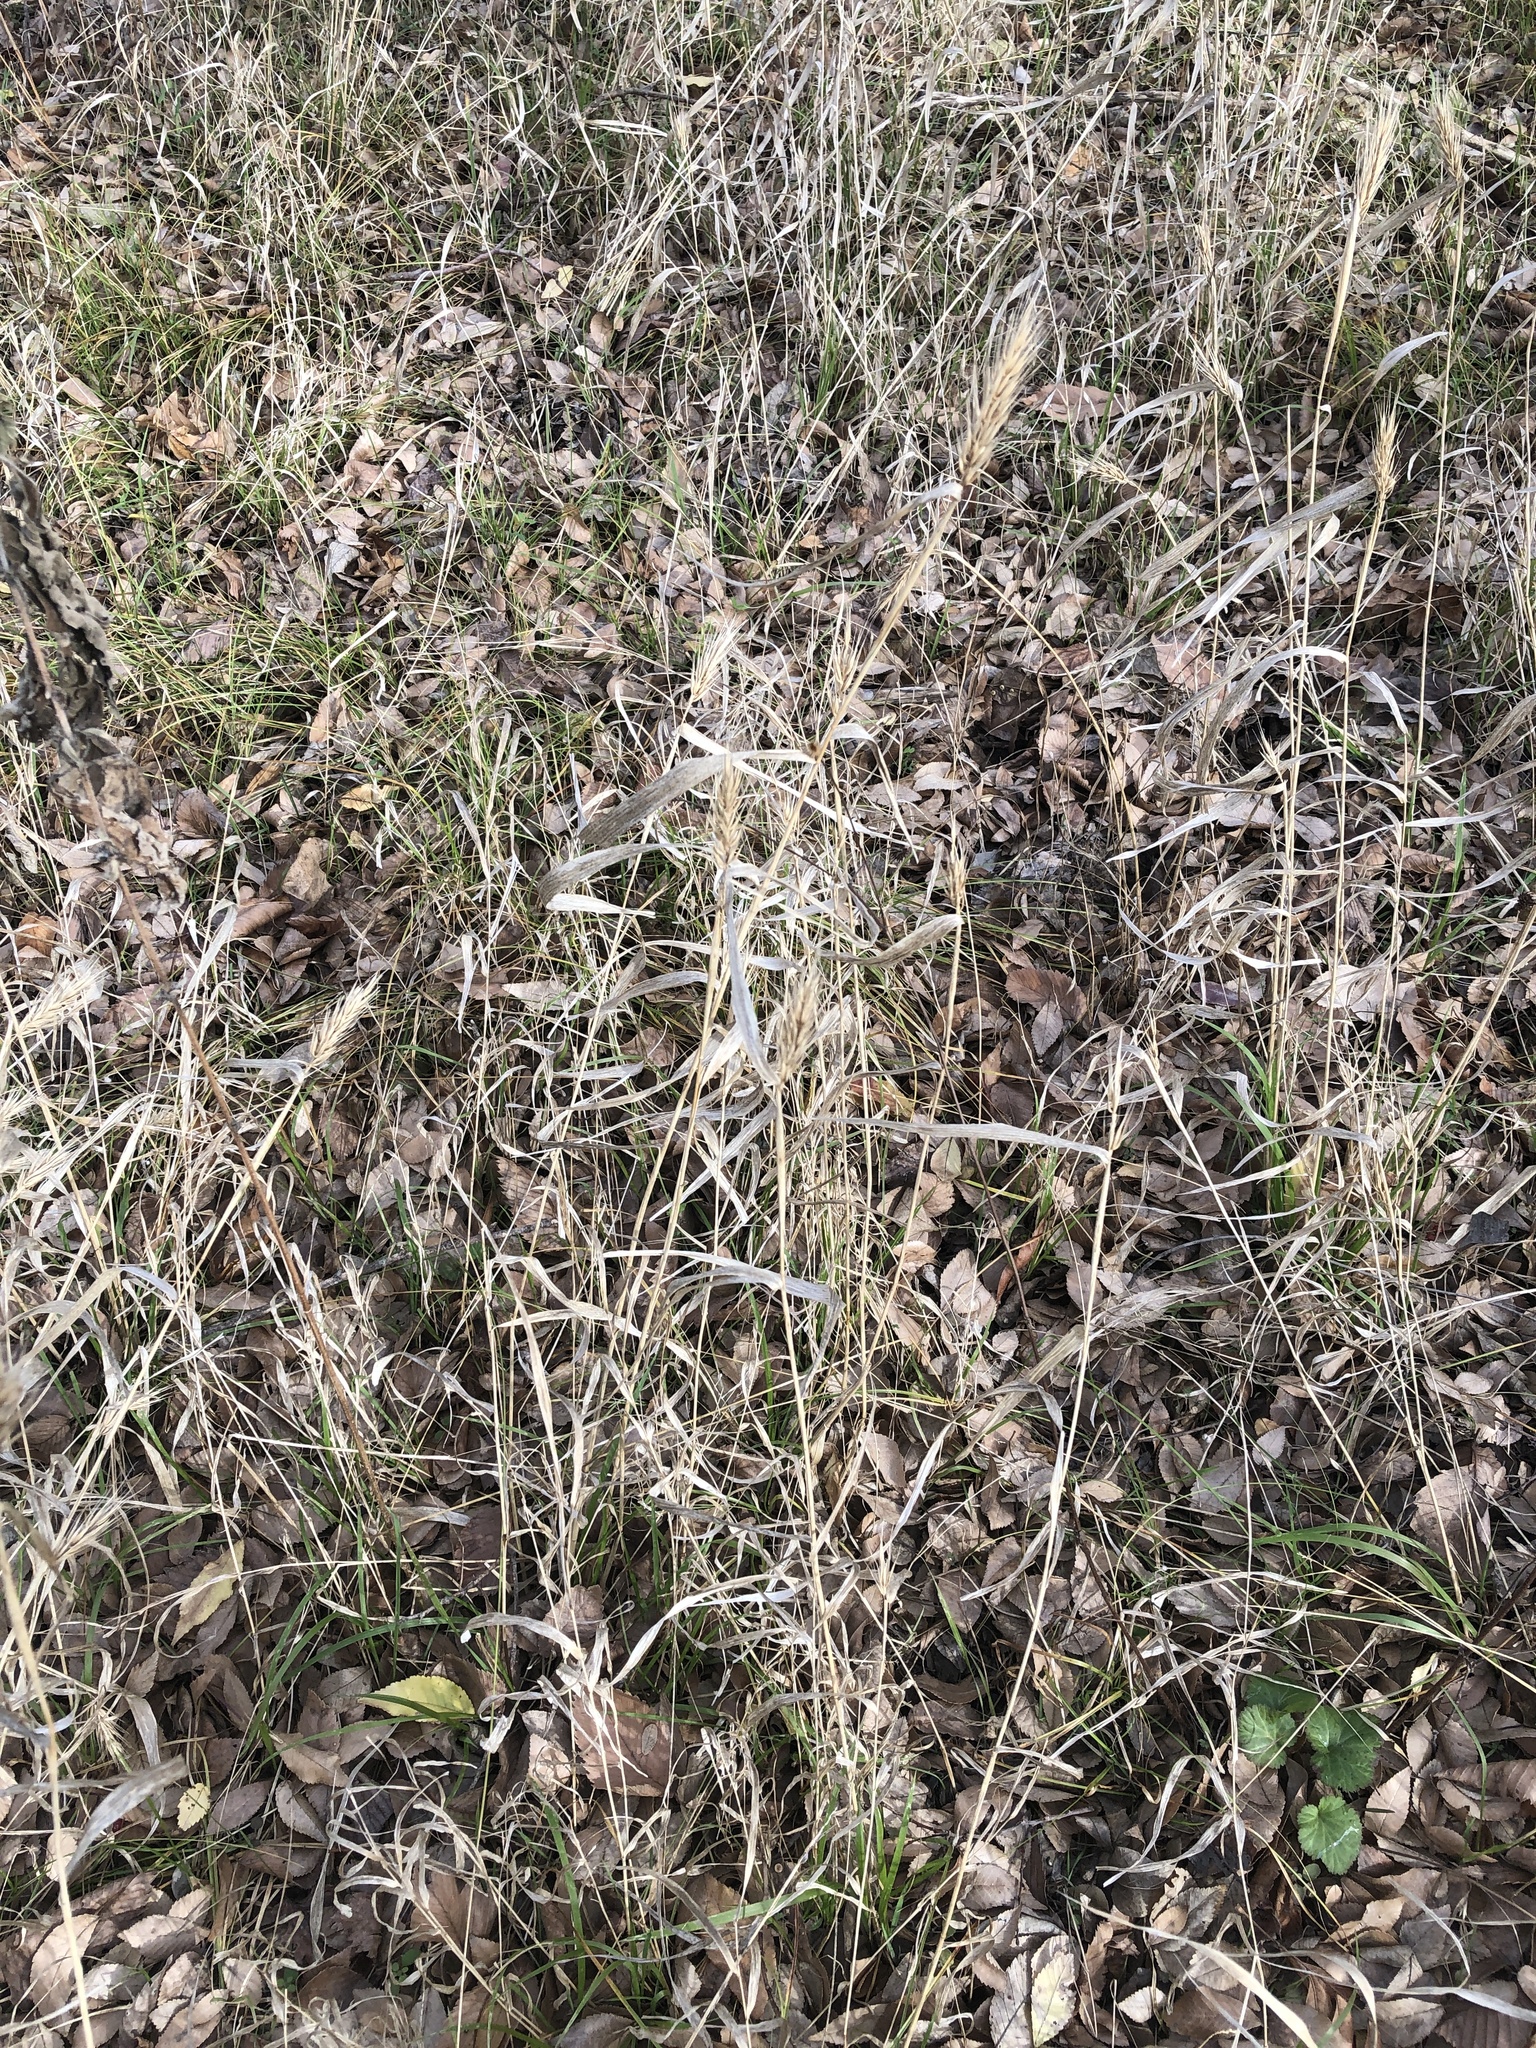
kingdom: Plantae
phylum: Tracheophyta
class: Liliopsida
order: Poales
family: Poaceae
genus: Elymus
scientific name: Elymus virginicus
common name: Common eastern wildrye
